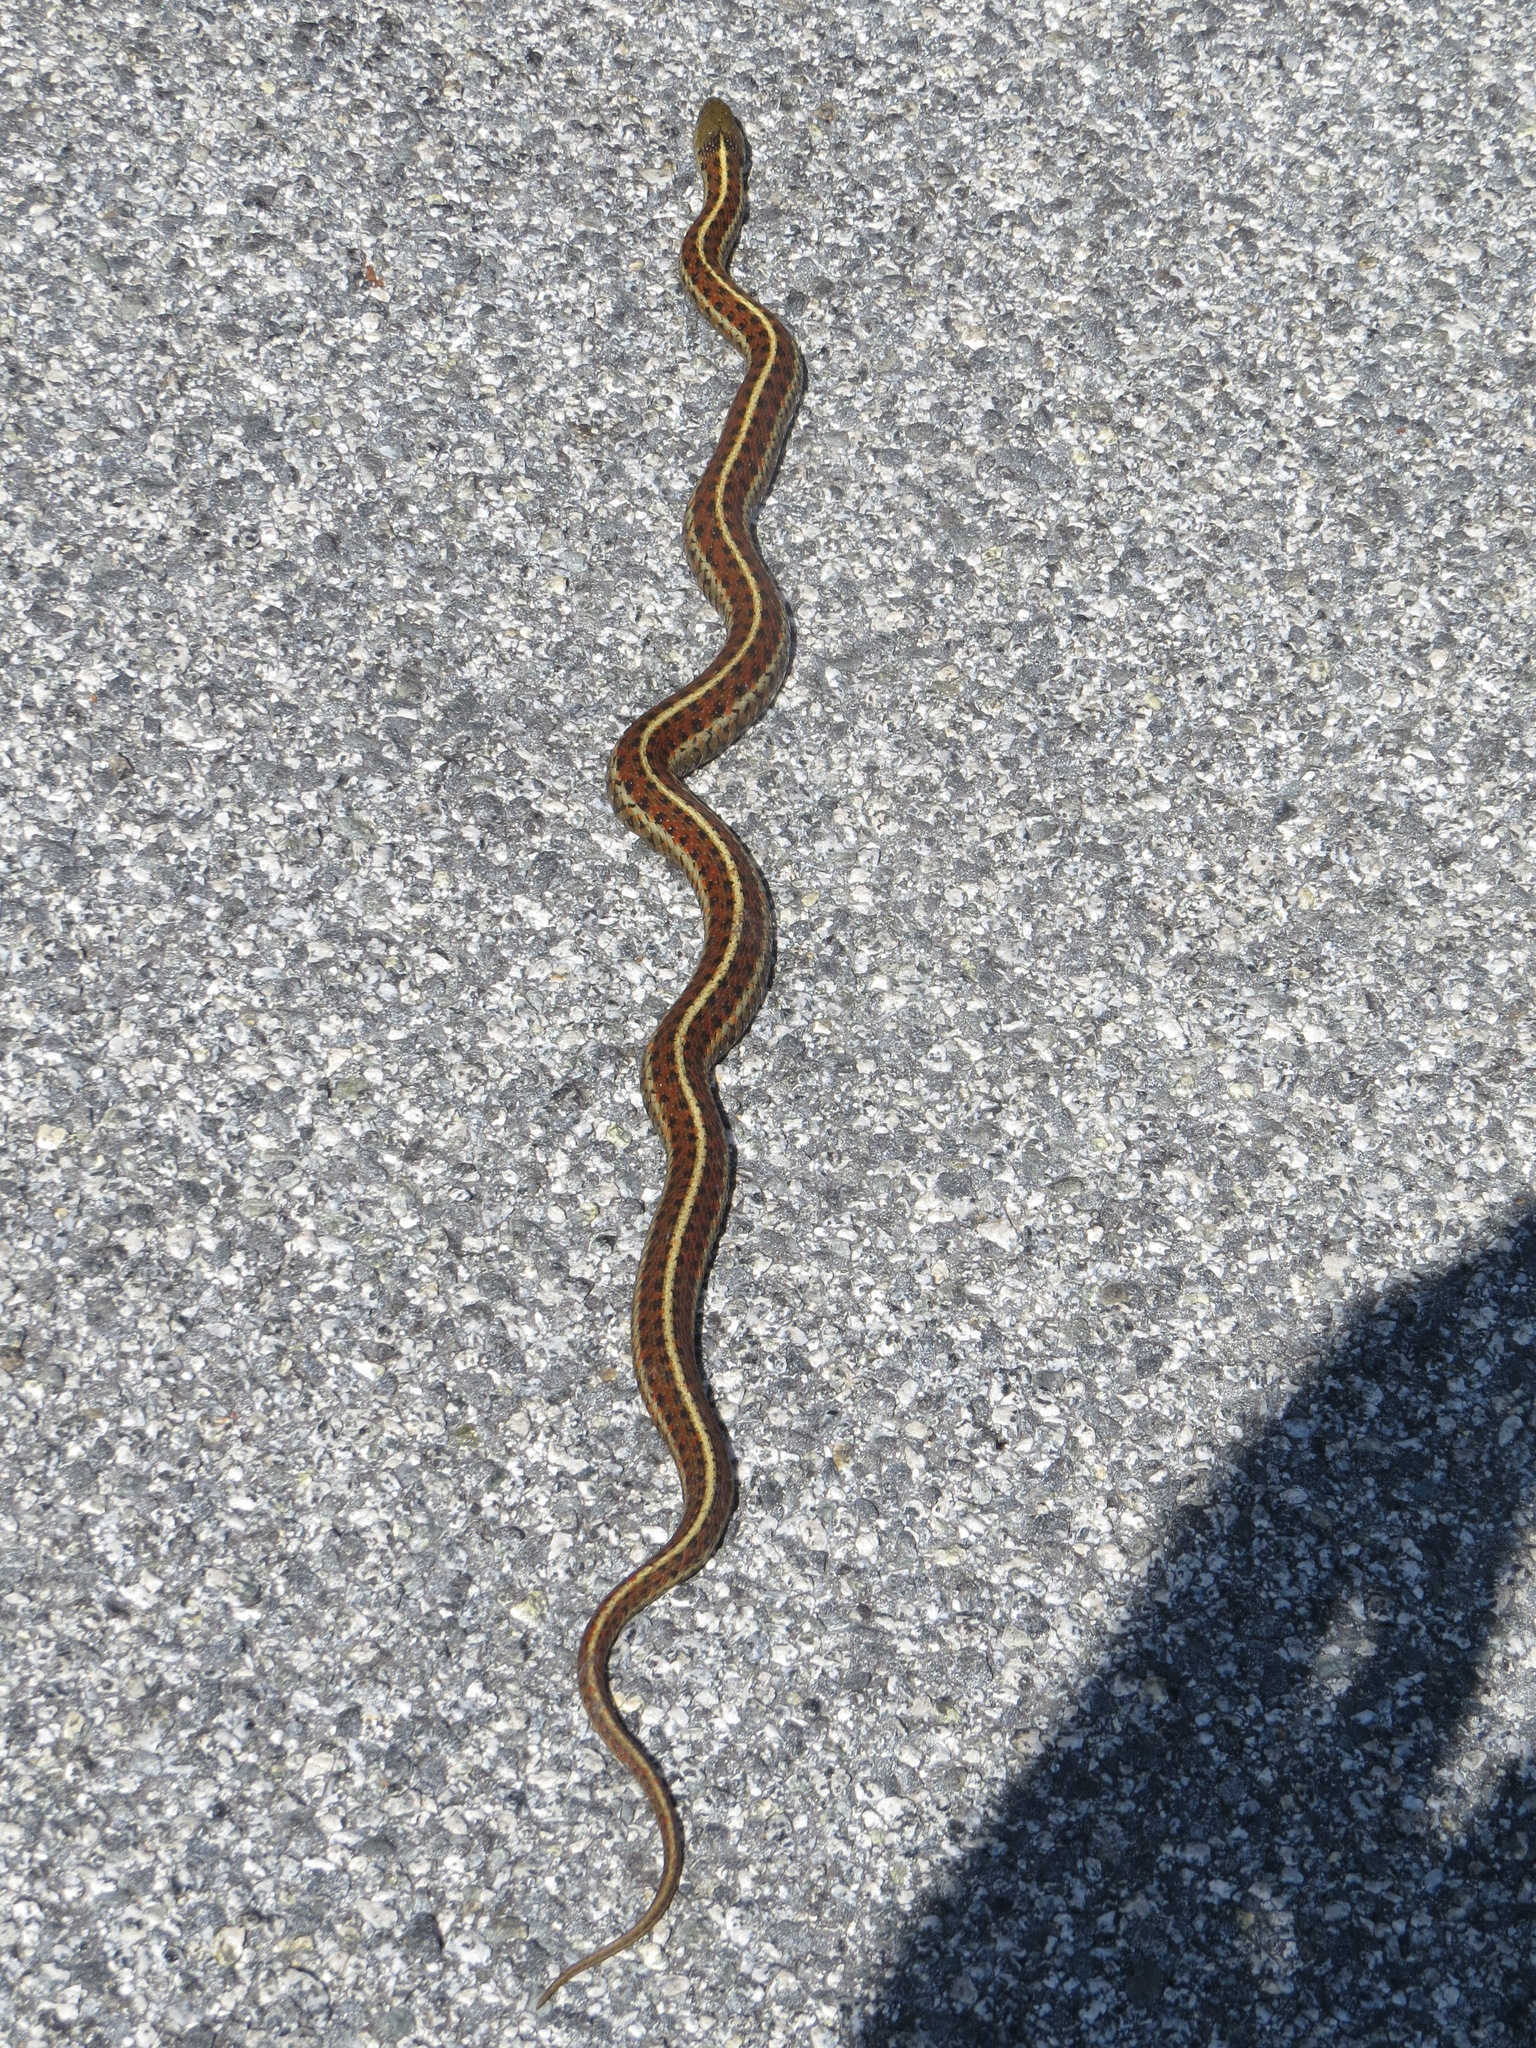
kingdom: Animalia
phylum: Chordata
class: Squamata
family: Colubridae
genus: Thamnophis
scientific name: Thamnophis elegans
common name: Western terrestrial garter snake
